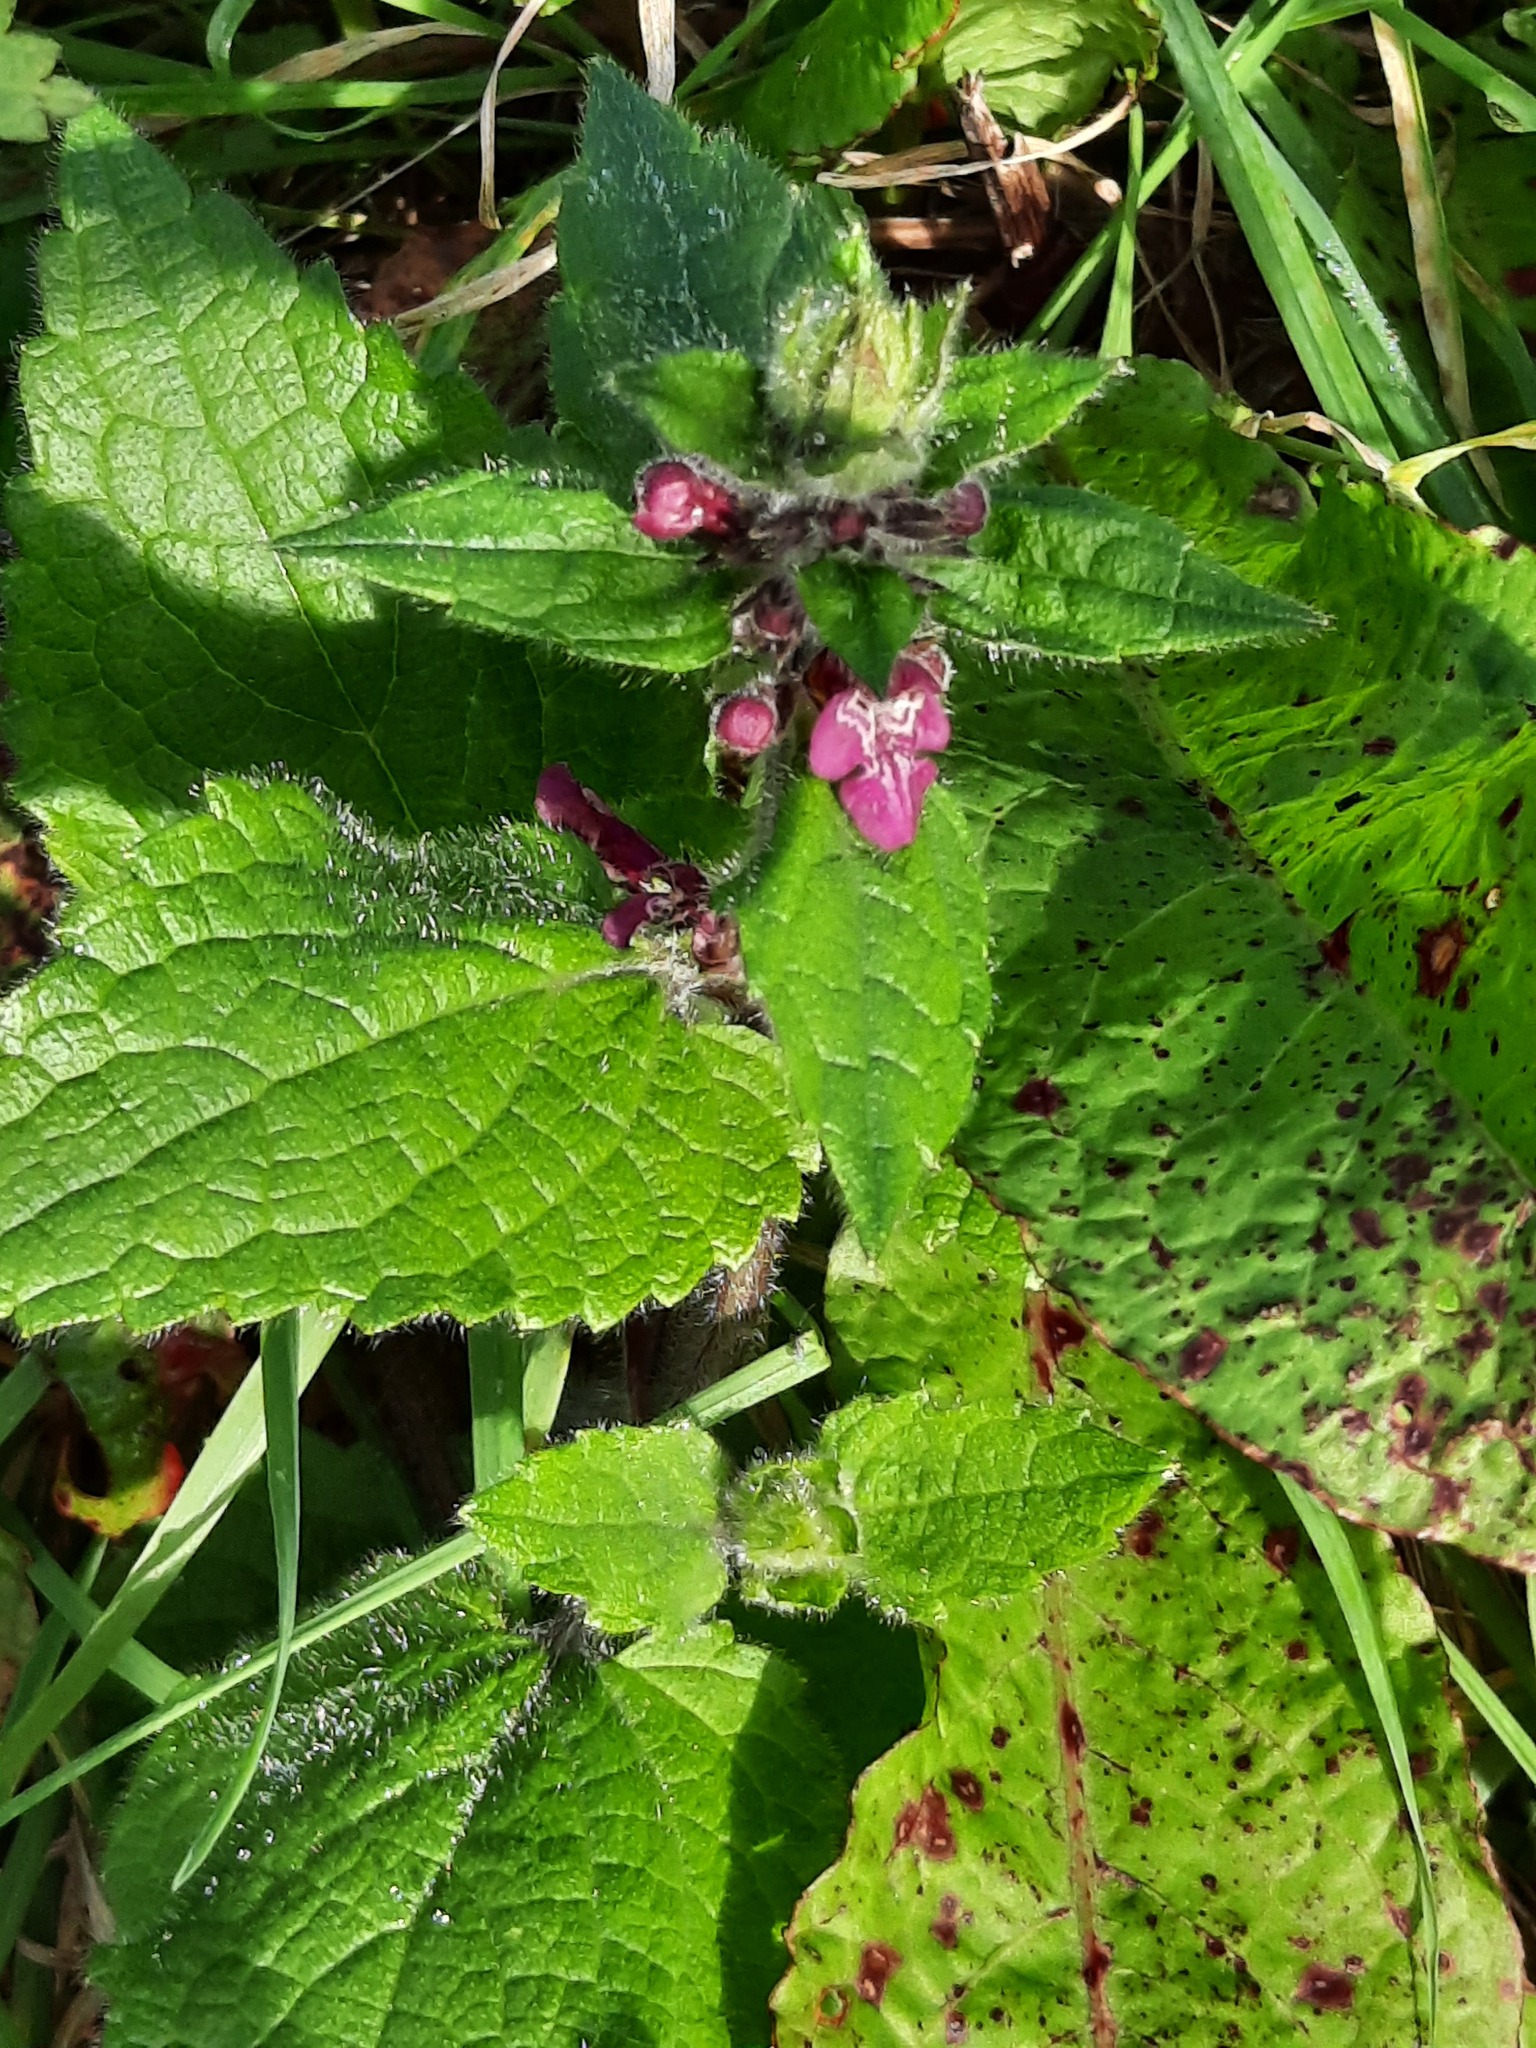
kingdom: Plantae
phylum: Tracheophyta
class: Magnoliopsida
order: Lamiales
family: Lamiaceae
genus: Stachys
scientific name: Stachys sylvatica
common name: Hedge woundwort
